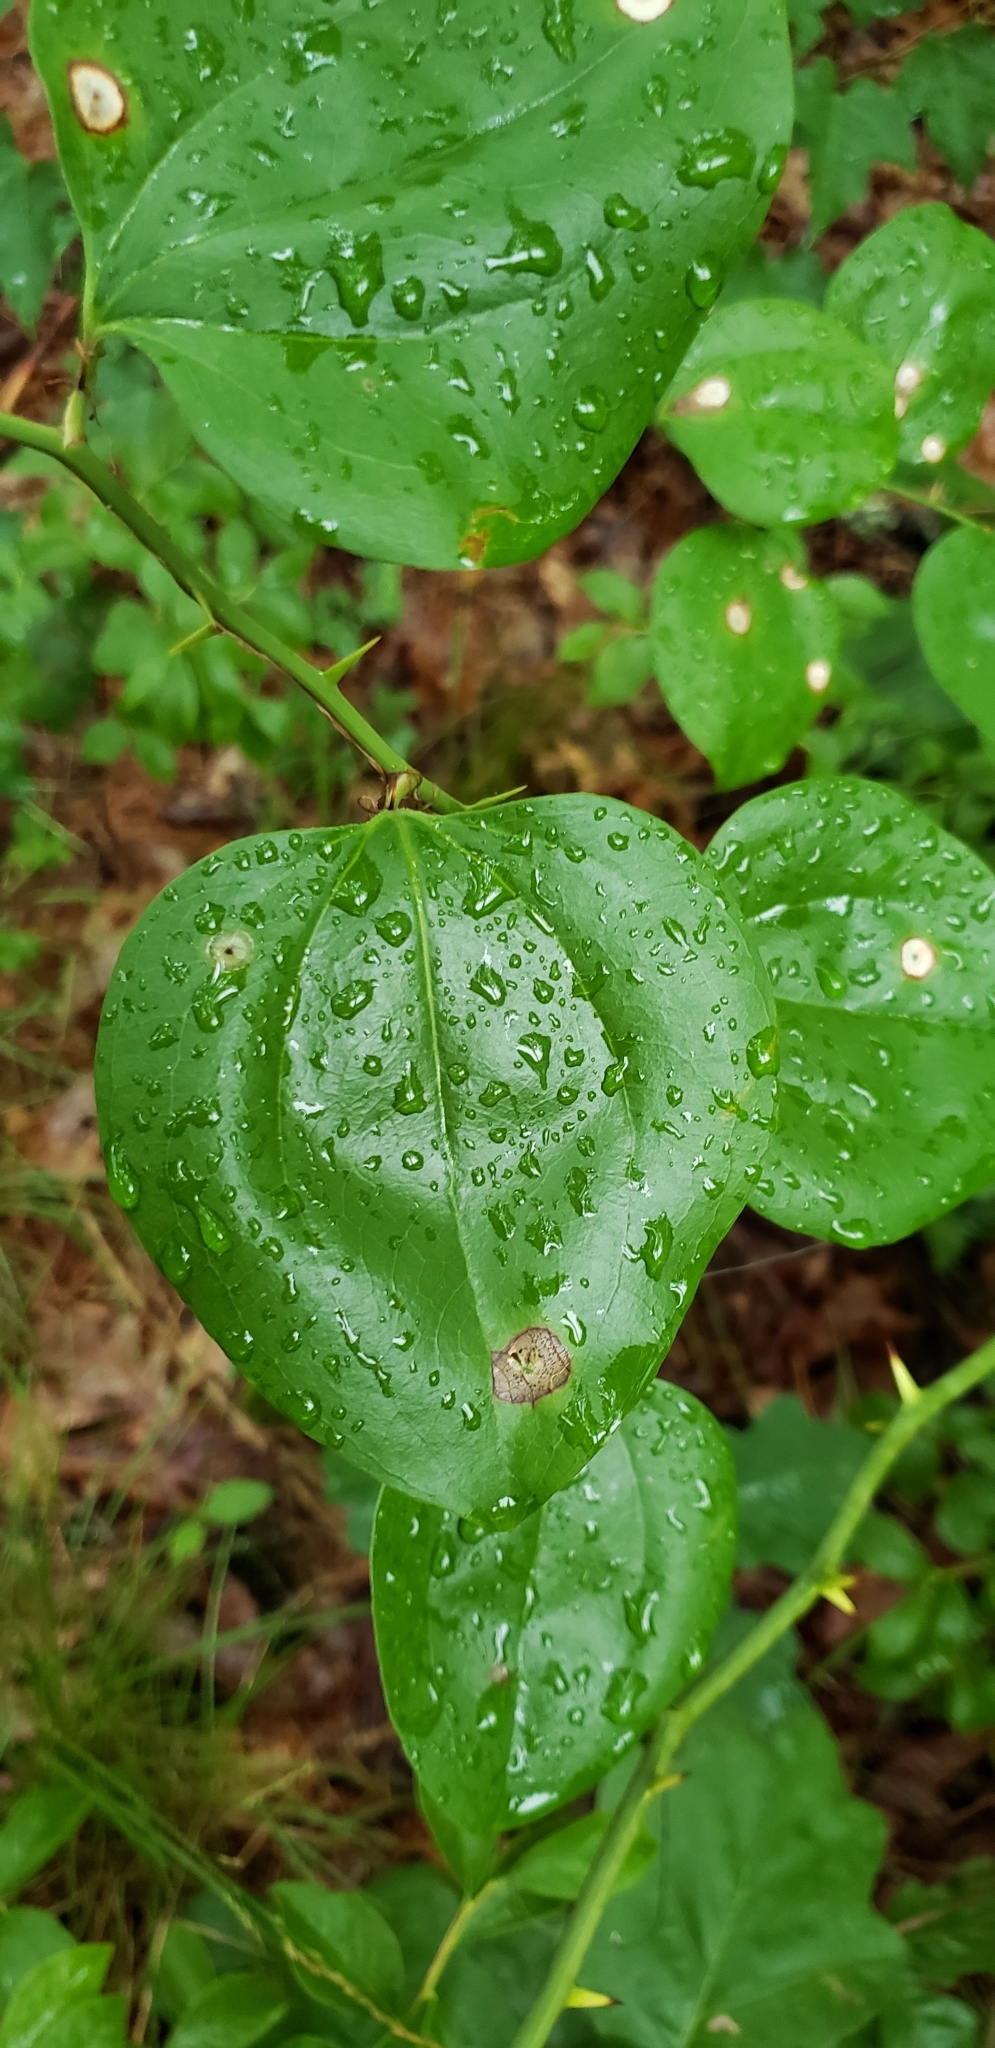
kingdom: Plantae
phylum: Tracheophyta
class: Liliopsida
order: Liliales
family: Smilacaceae
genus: Smilax
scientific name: Smilax rotundifolia
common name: Bullbriar
